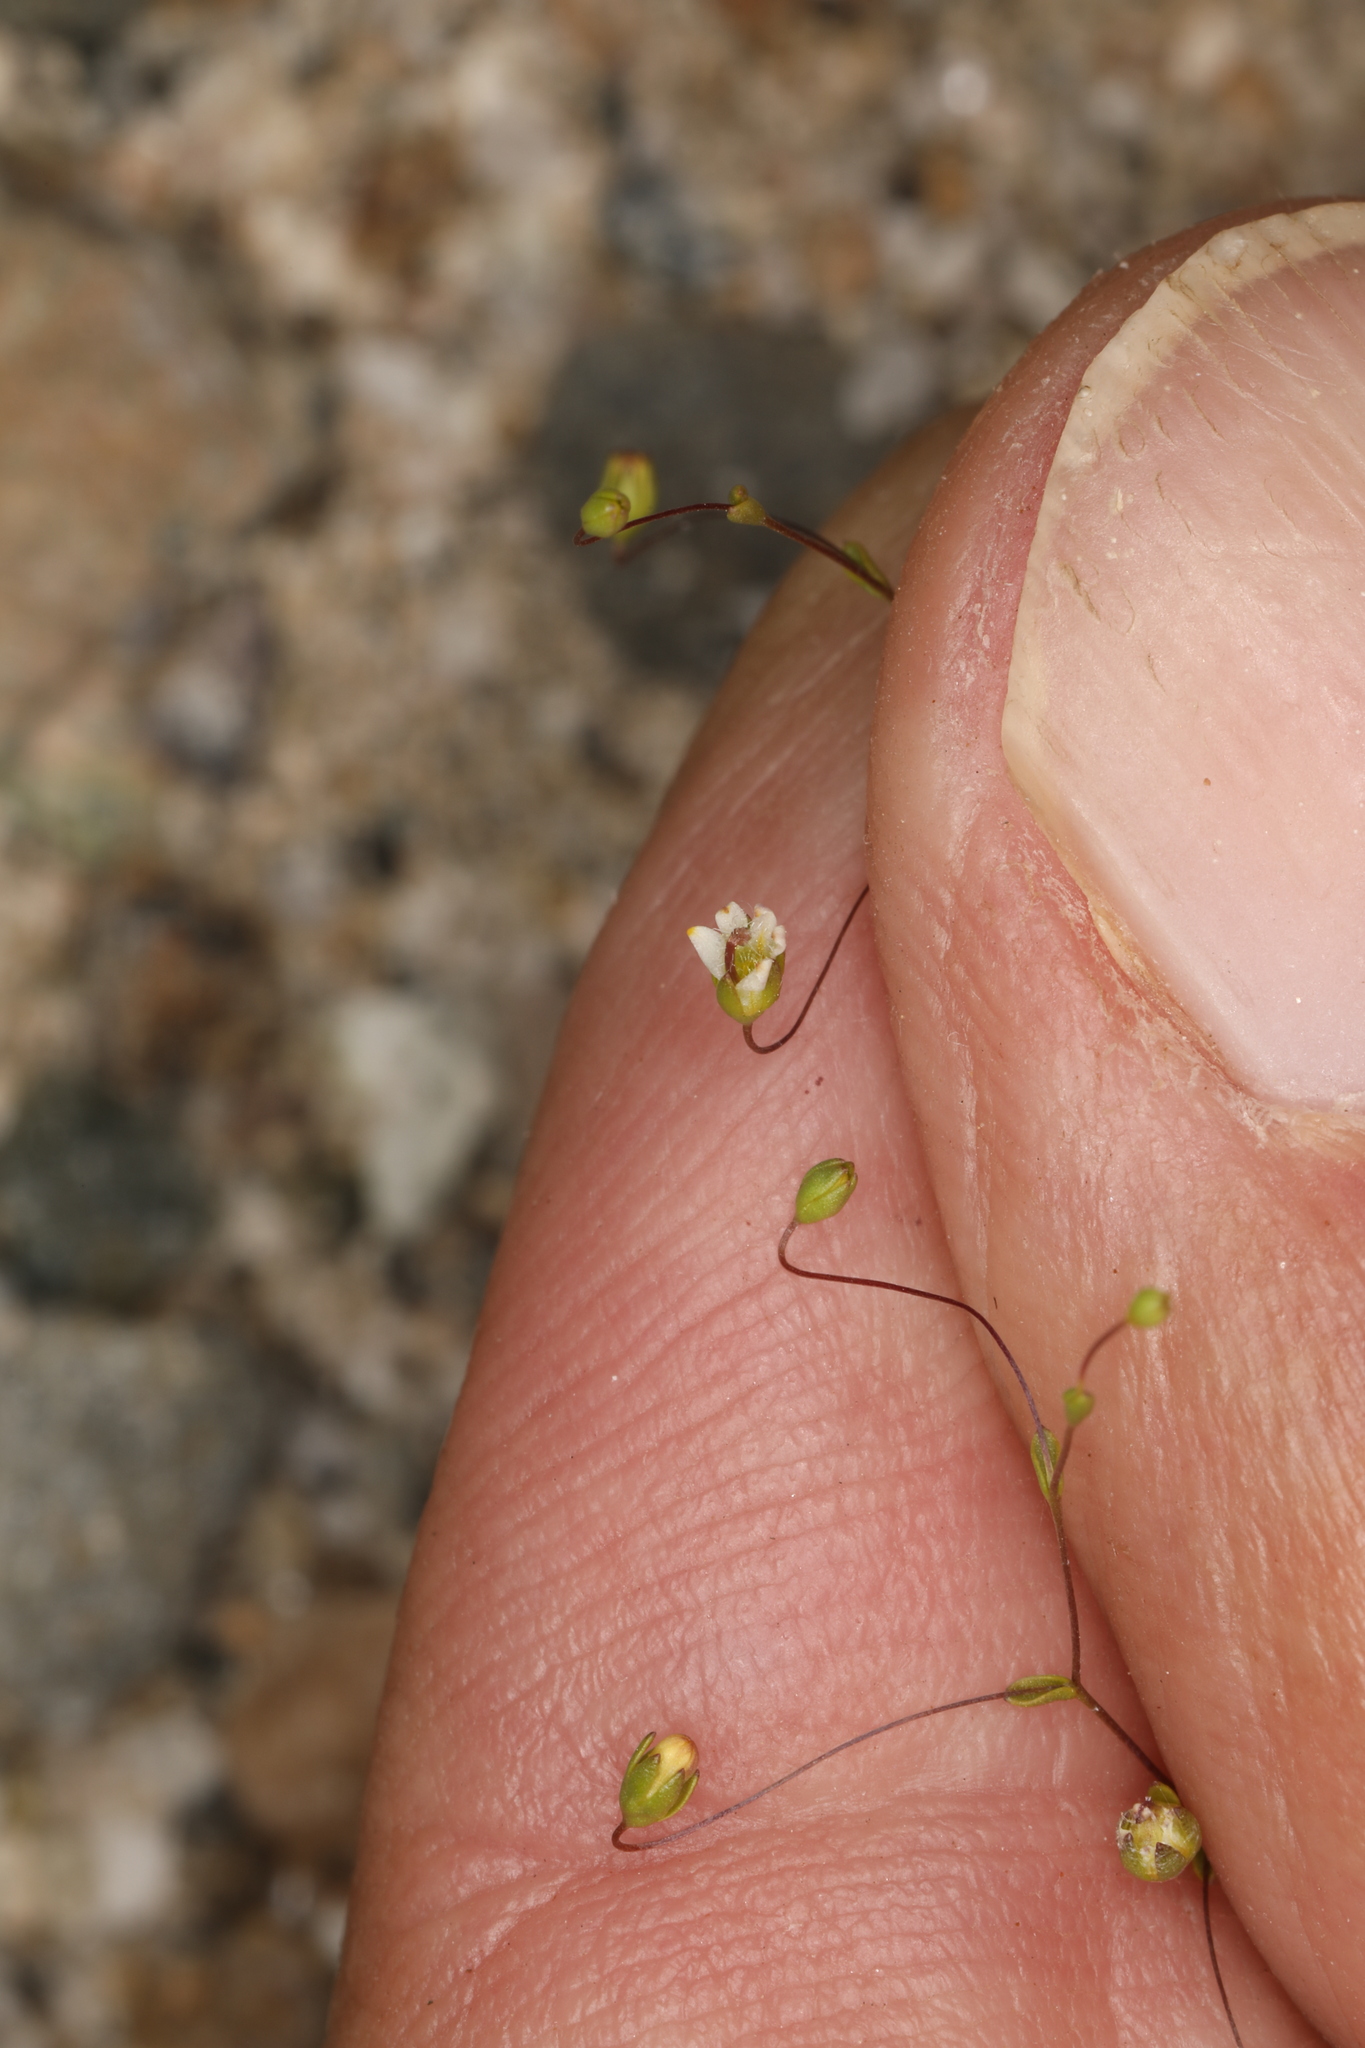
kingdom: Plantae
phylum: Tracheophyta
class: Magnoliopsida
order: Asterales
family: Campanulaceae
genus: Nemacladus
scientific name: Nemacladus eastwoodiae
